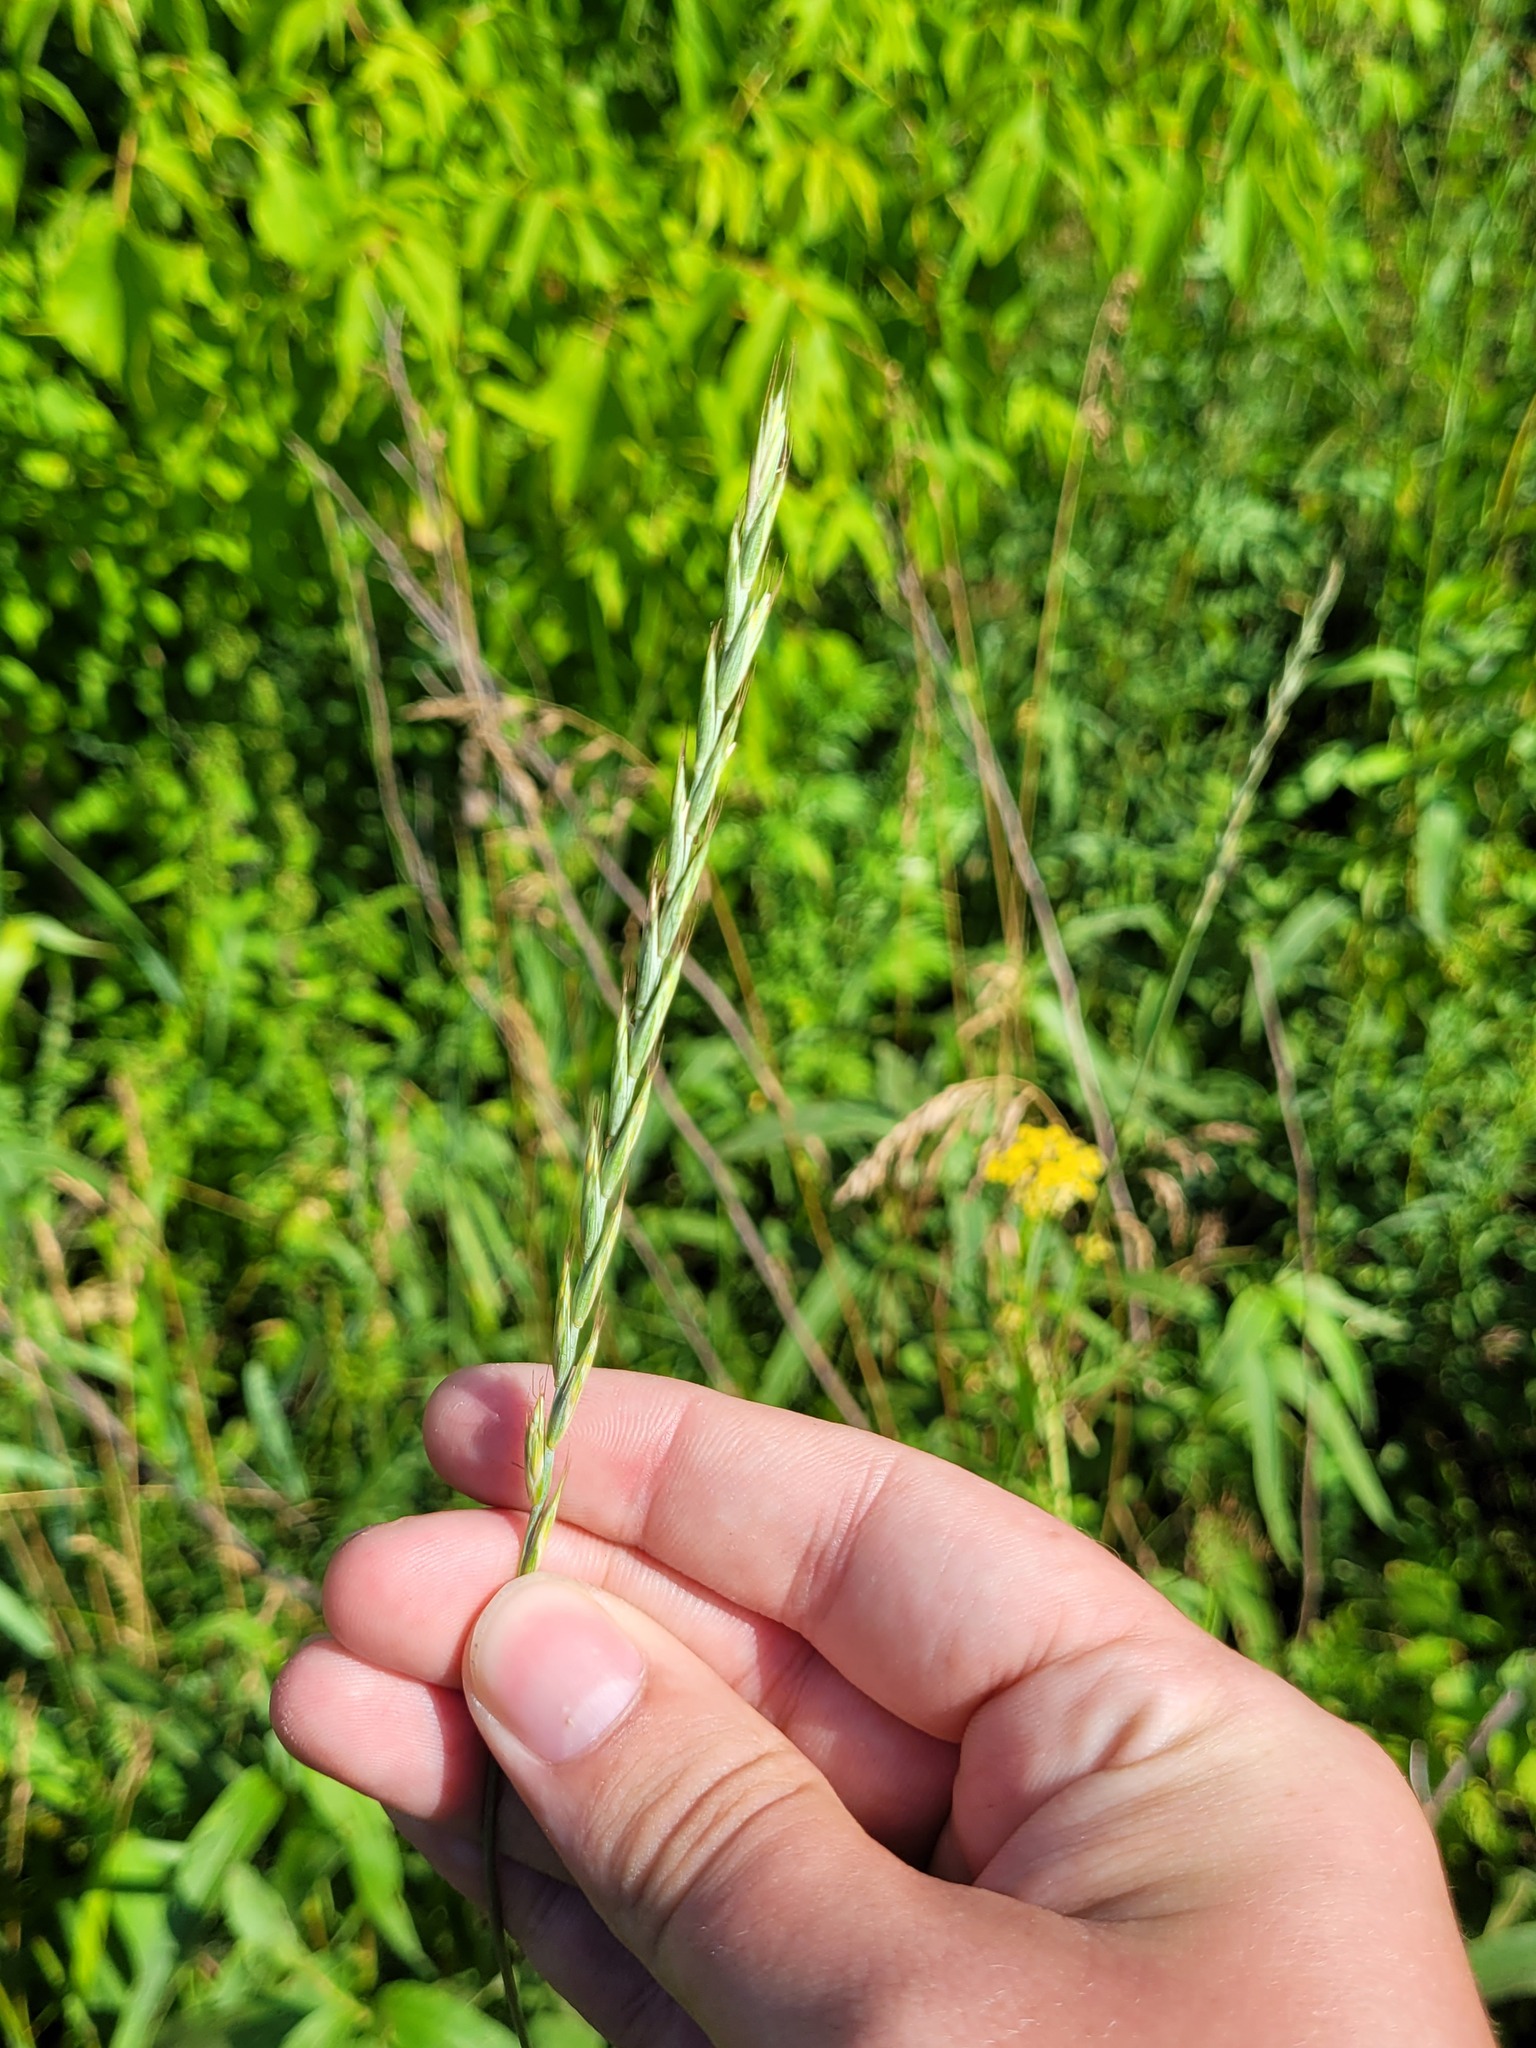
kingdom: Plantae
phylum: Tracheophyta
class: Liliopsida
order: Poales
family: Poaceae
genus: Elymus
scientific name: Elymus repens
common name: Quackgrass
